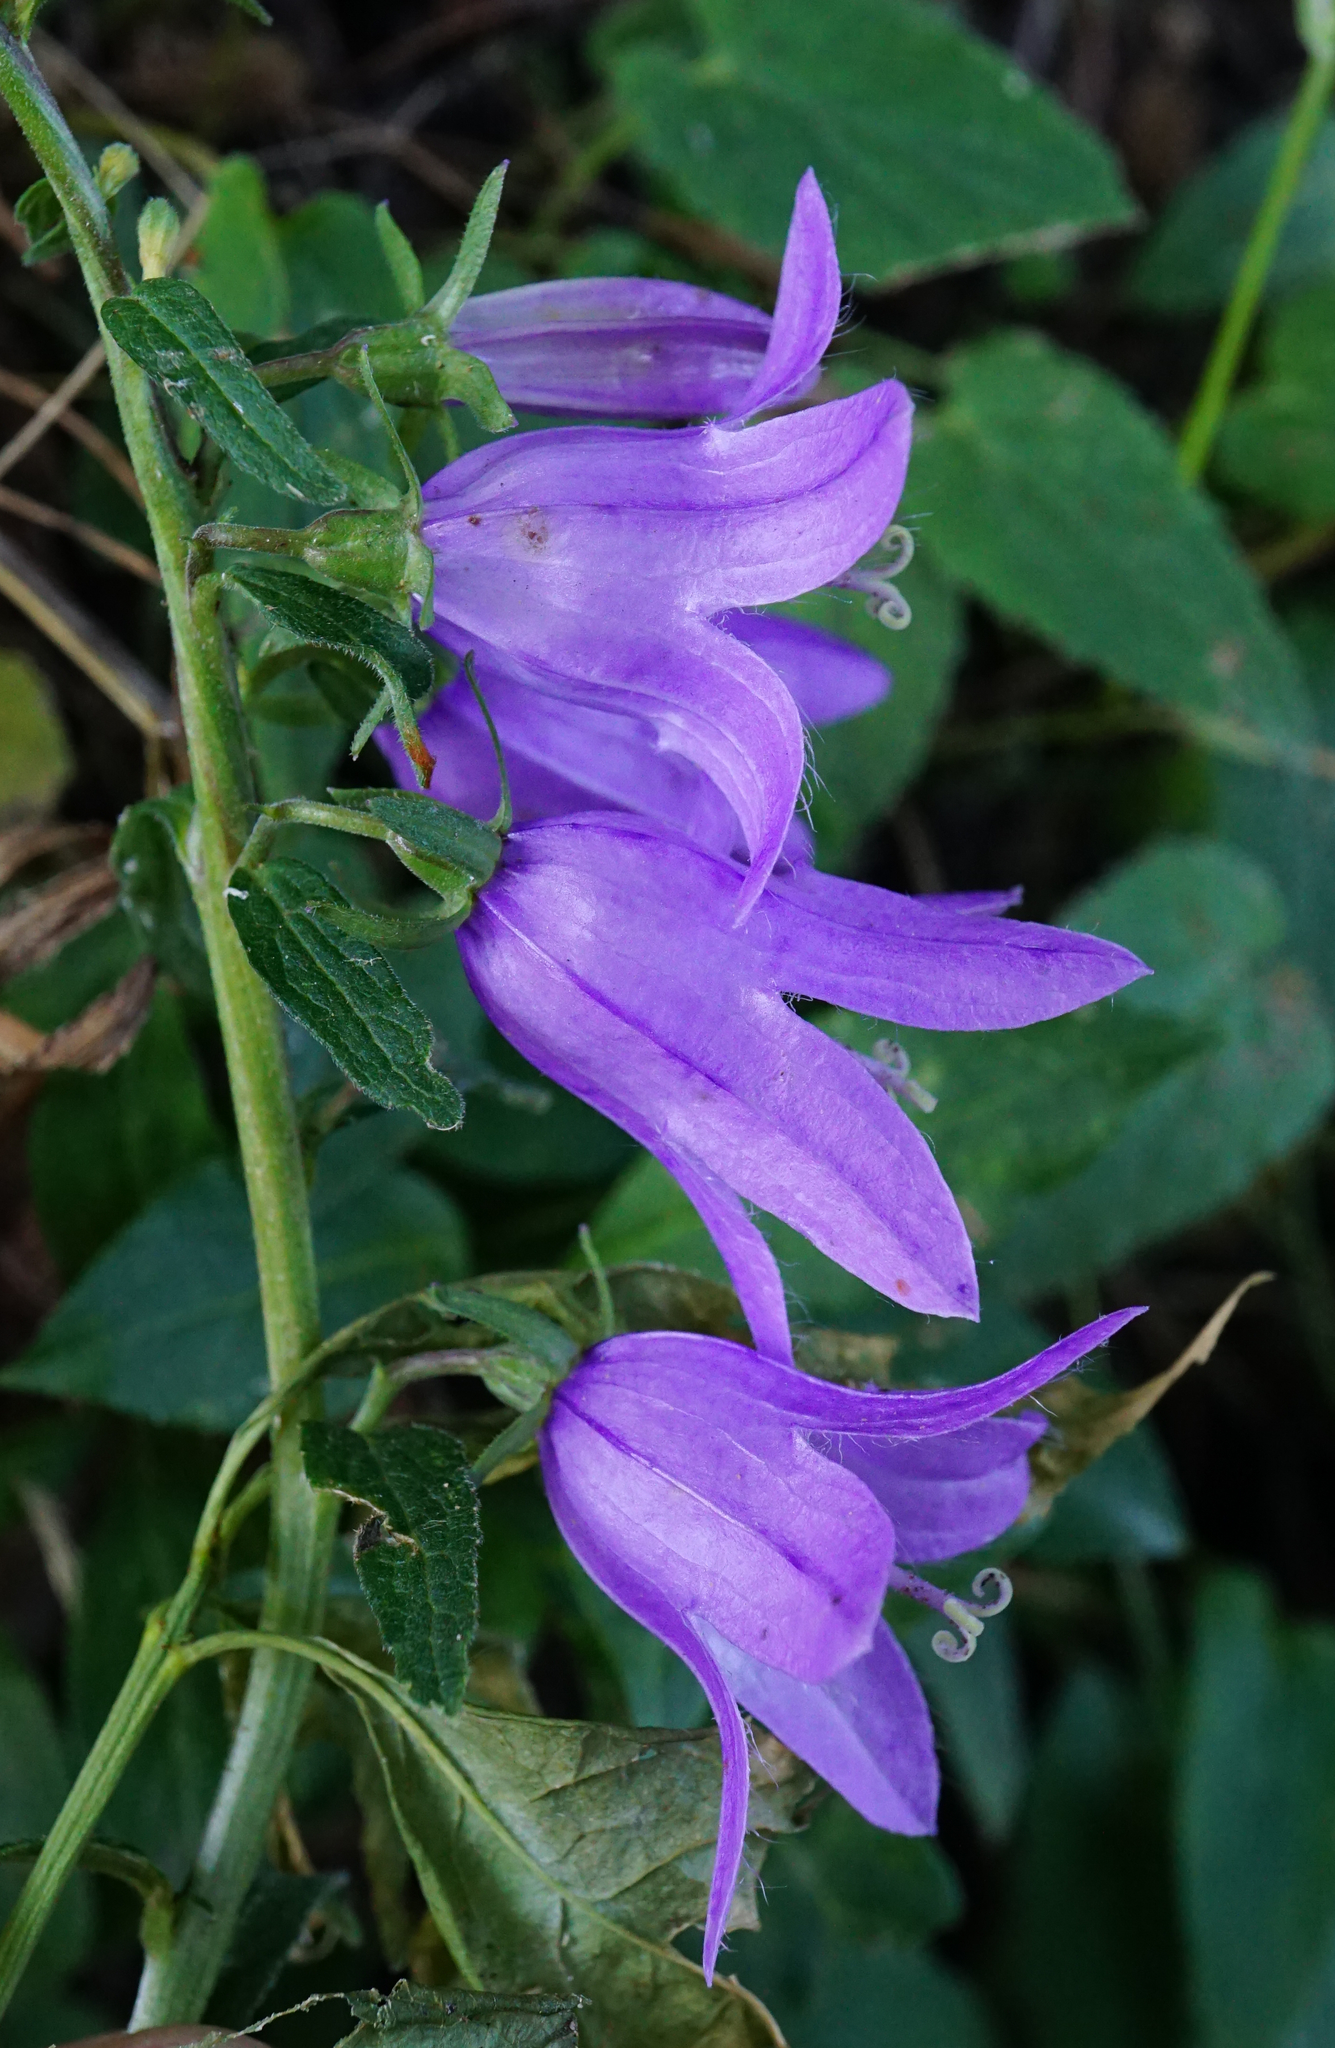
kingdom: Plantae
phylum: Tracheophyta
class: Magnoliopsida
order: Asterales
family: Campanulaceae
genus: Campanula
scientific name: Campanula rapunculoides
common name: Creeping bellflower
